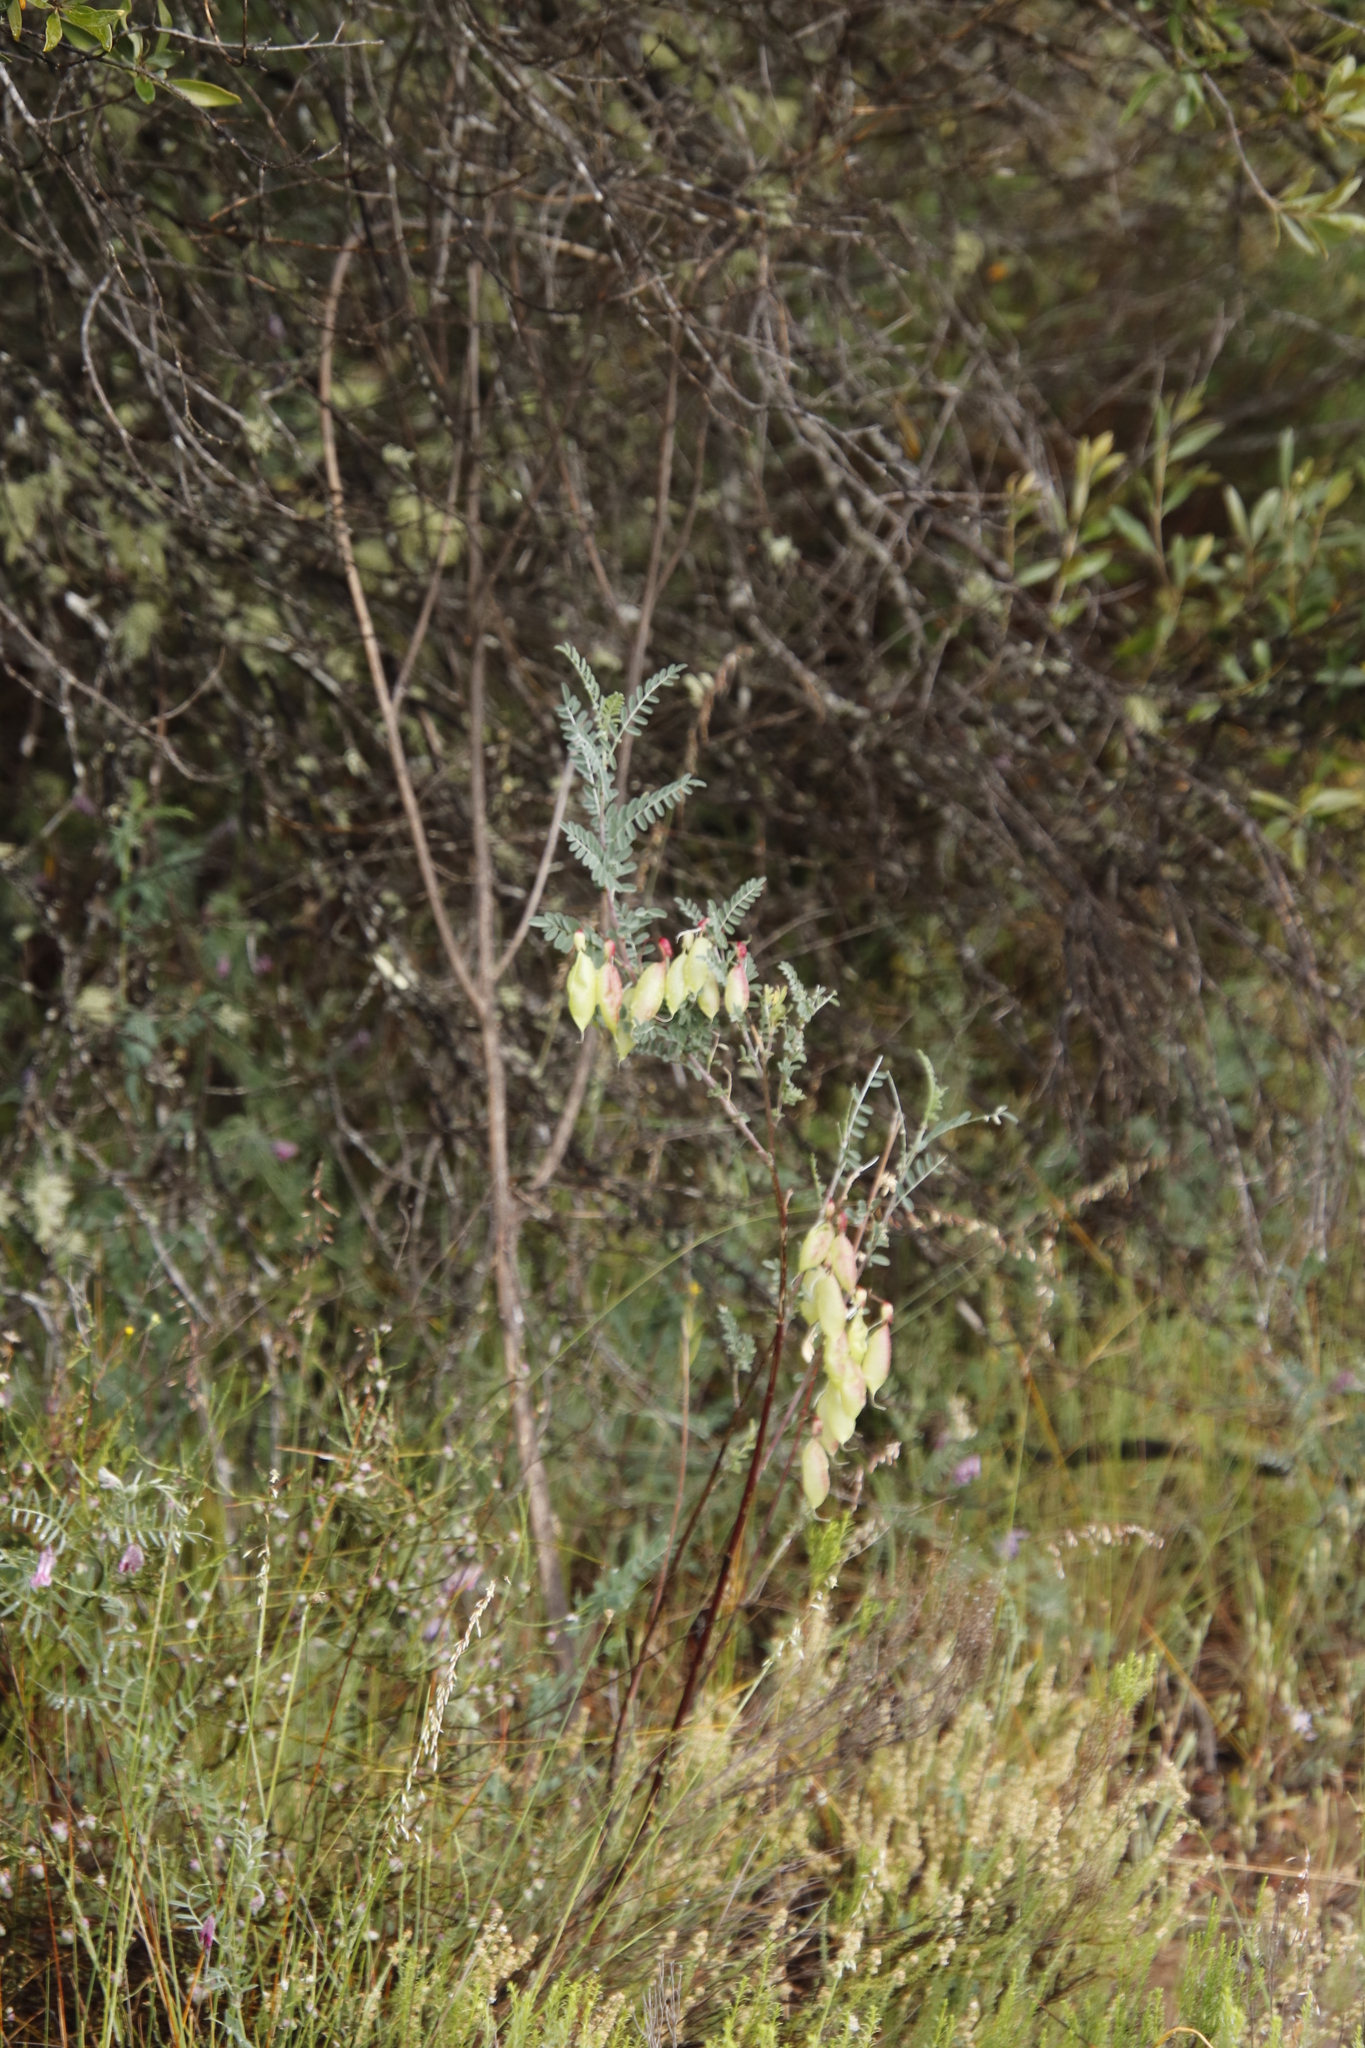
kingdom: Plantae
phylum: Tracheophyta
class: Magnoliopsida
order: Fabales
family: Fabaceae
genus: Lessertia
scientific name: Lessertia frutescens
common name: Balloon-pea
